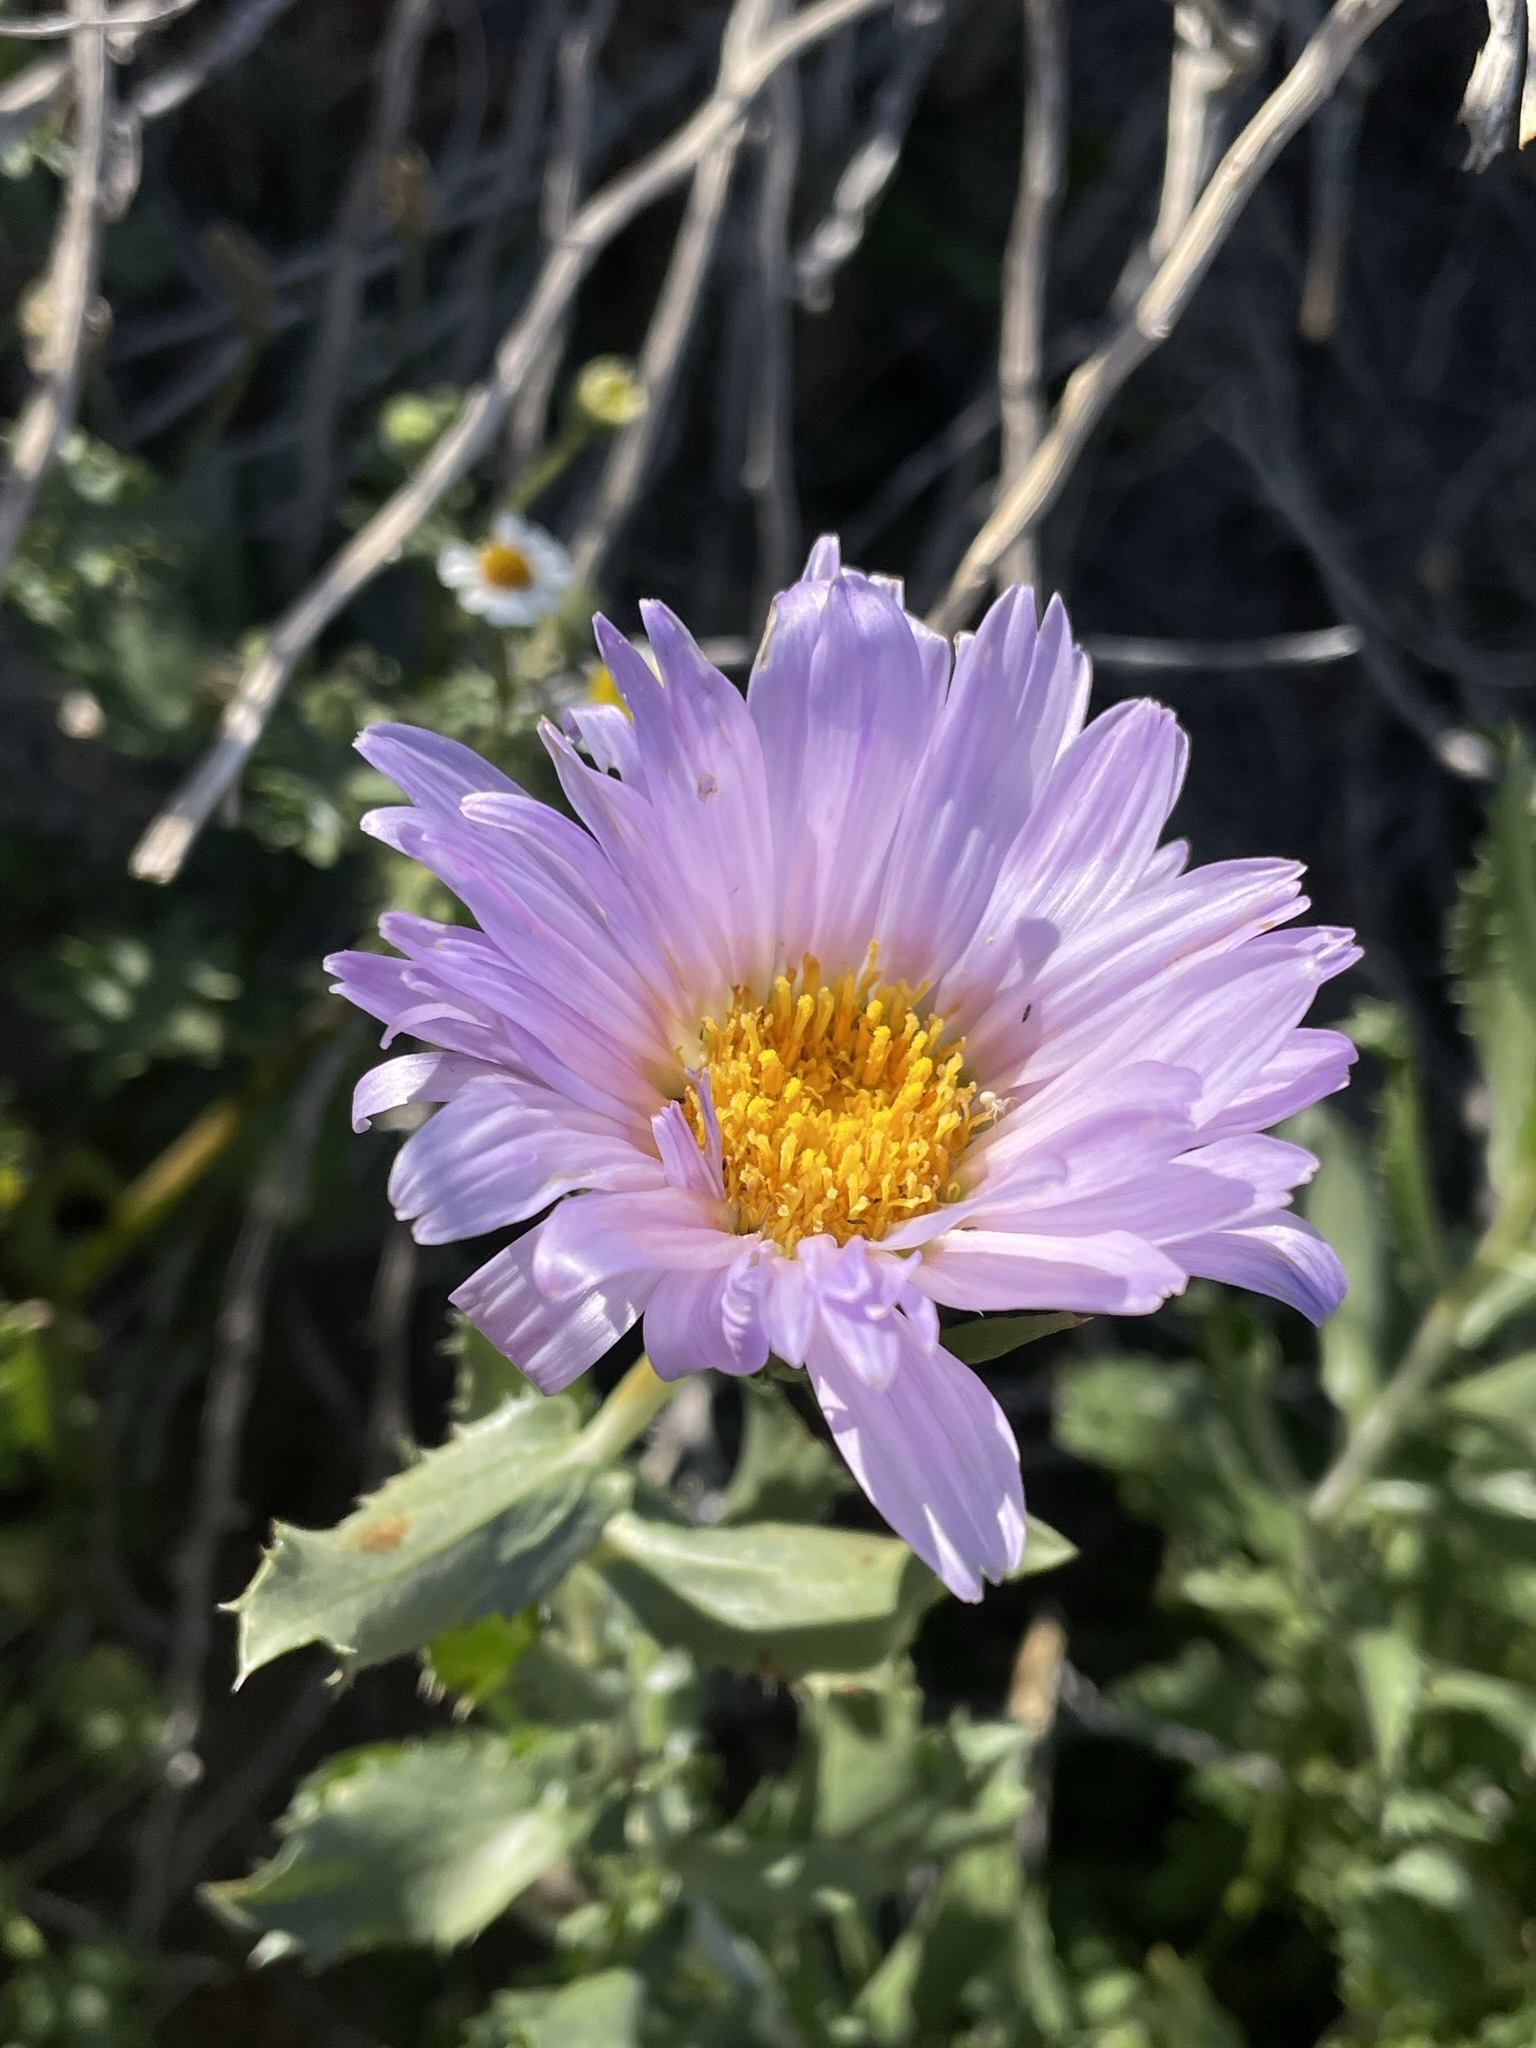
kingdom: Plantae
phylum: Tracheophyta
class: Magnoliopsida
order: Asterales
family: Asteraceae
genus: Xylorhiza
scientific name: Xylorhiza orcuttii
